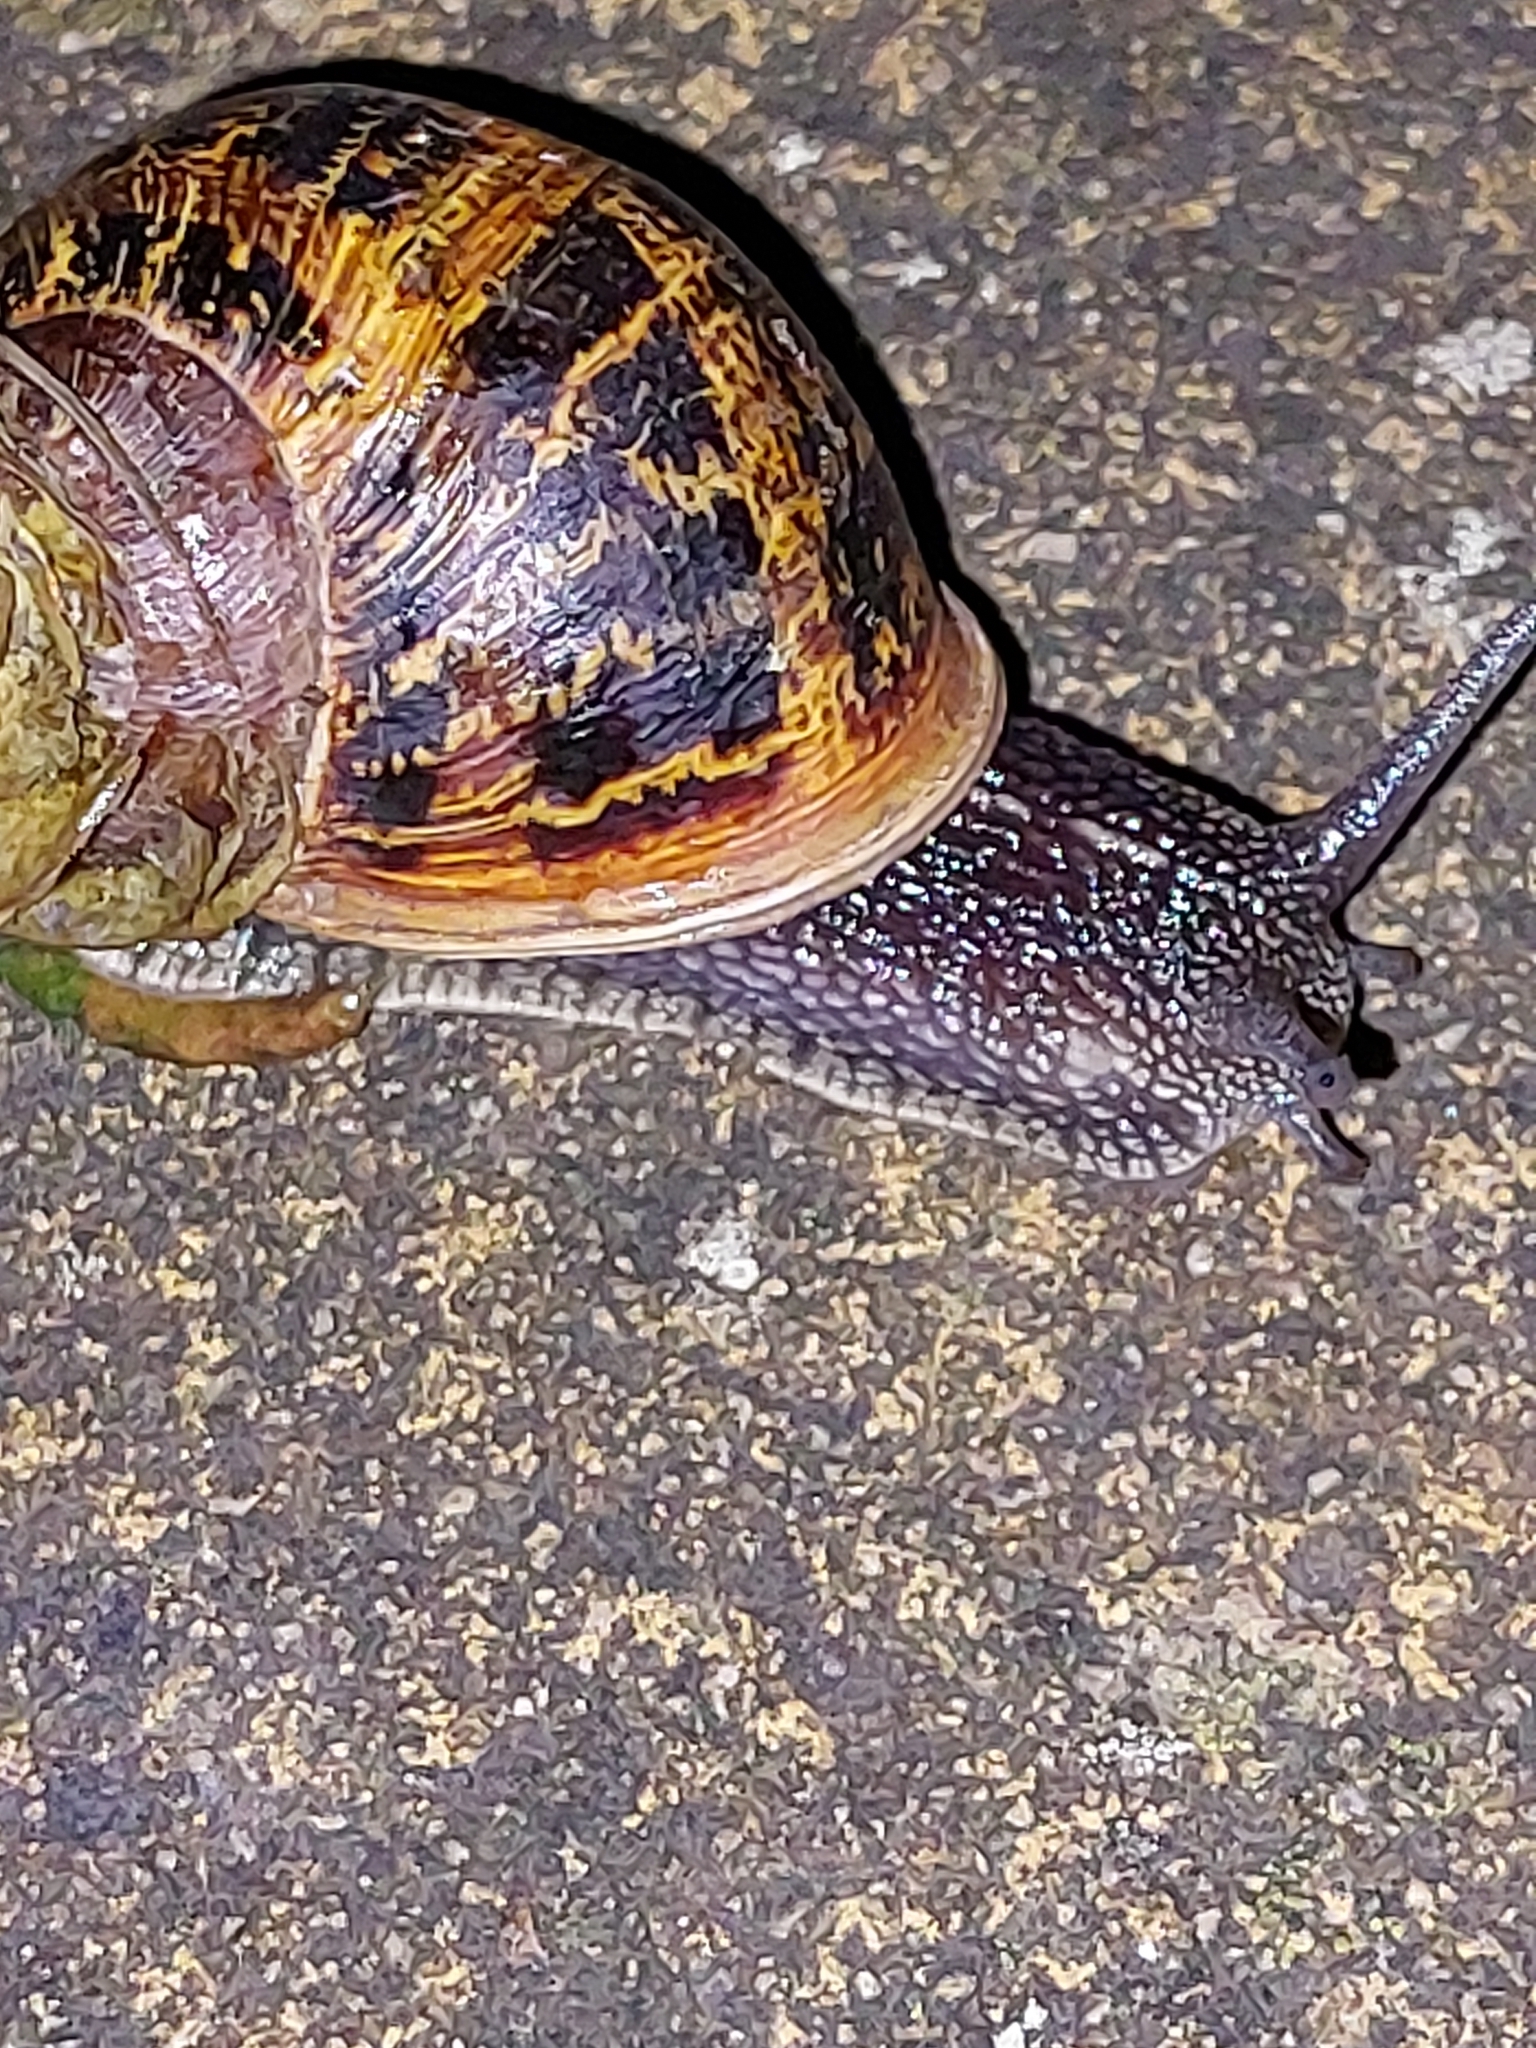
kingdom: Animalia
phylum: Mollusca
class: Gastropoda
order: Stylommatophora
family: Helicidae
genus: Cornu
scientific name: Cornu aspersum
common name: Brown garden snail
